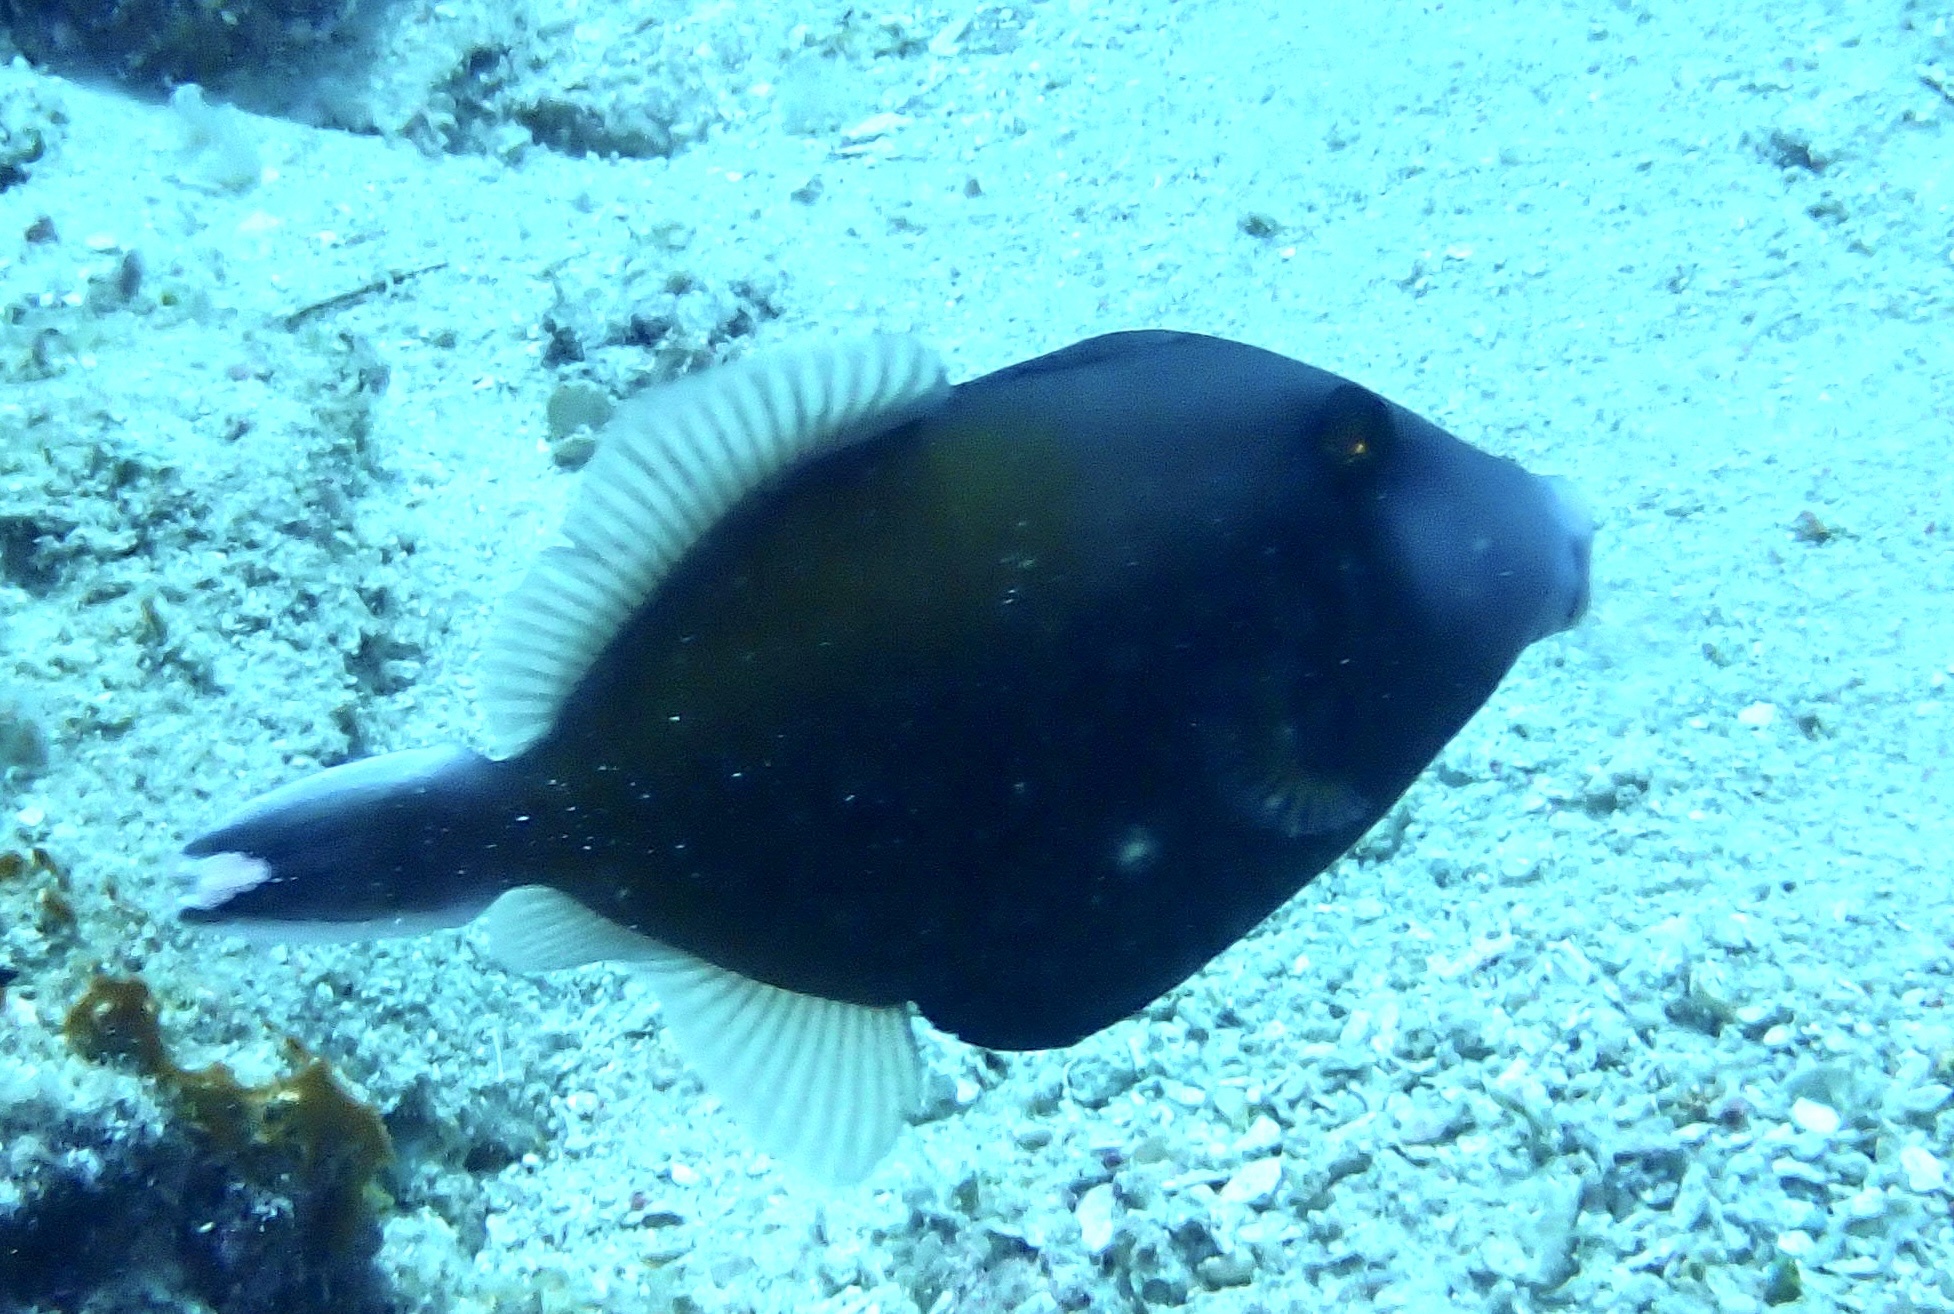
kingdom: Animalia
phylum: Chordata
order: Tetraodontiformes
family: Balistidae
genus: Sufflamen
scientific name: Sufflamen chrysopterum
